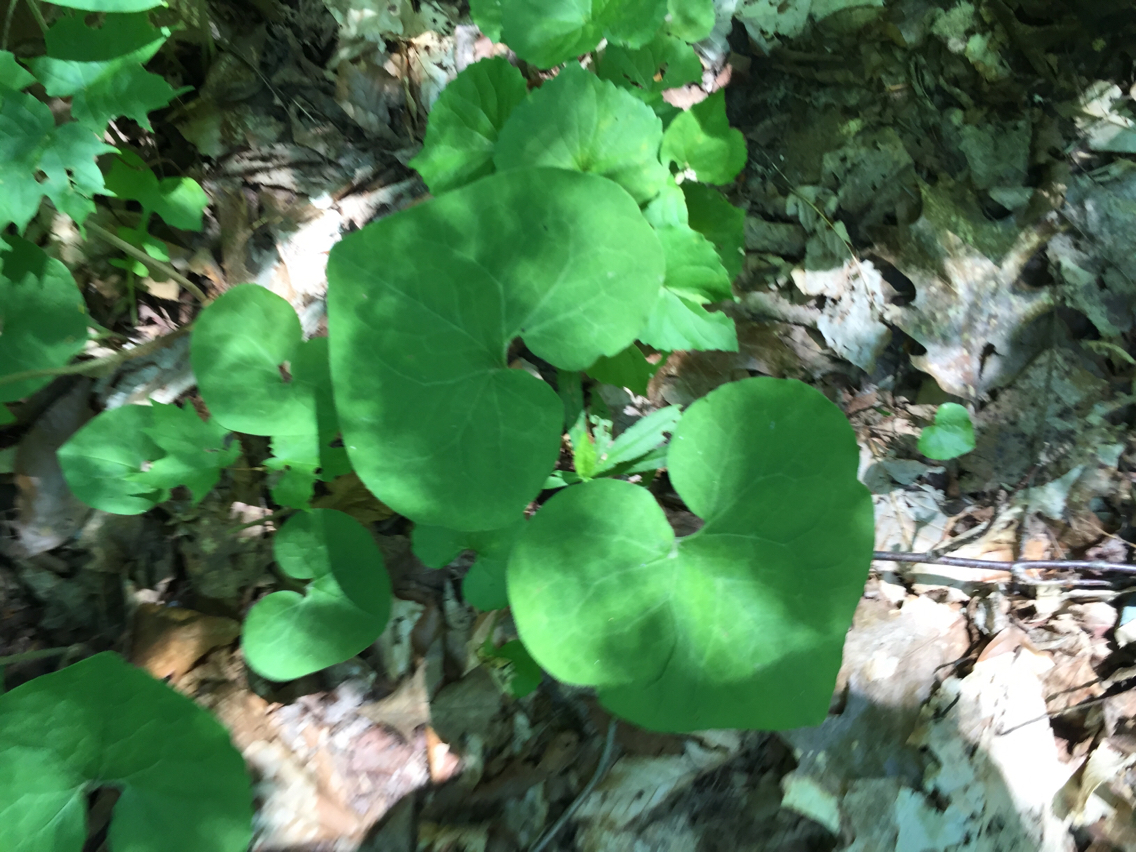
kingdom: Plantae
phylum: Tracheophyta
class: Magnoliopsida
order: Piperales
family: Aristolochiaceae
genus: Asarum
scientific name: Asarum canadense
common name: Wild ginger
